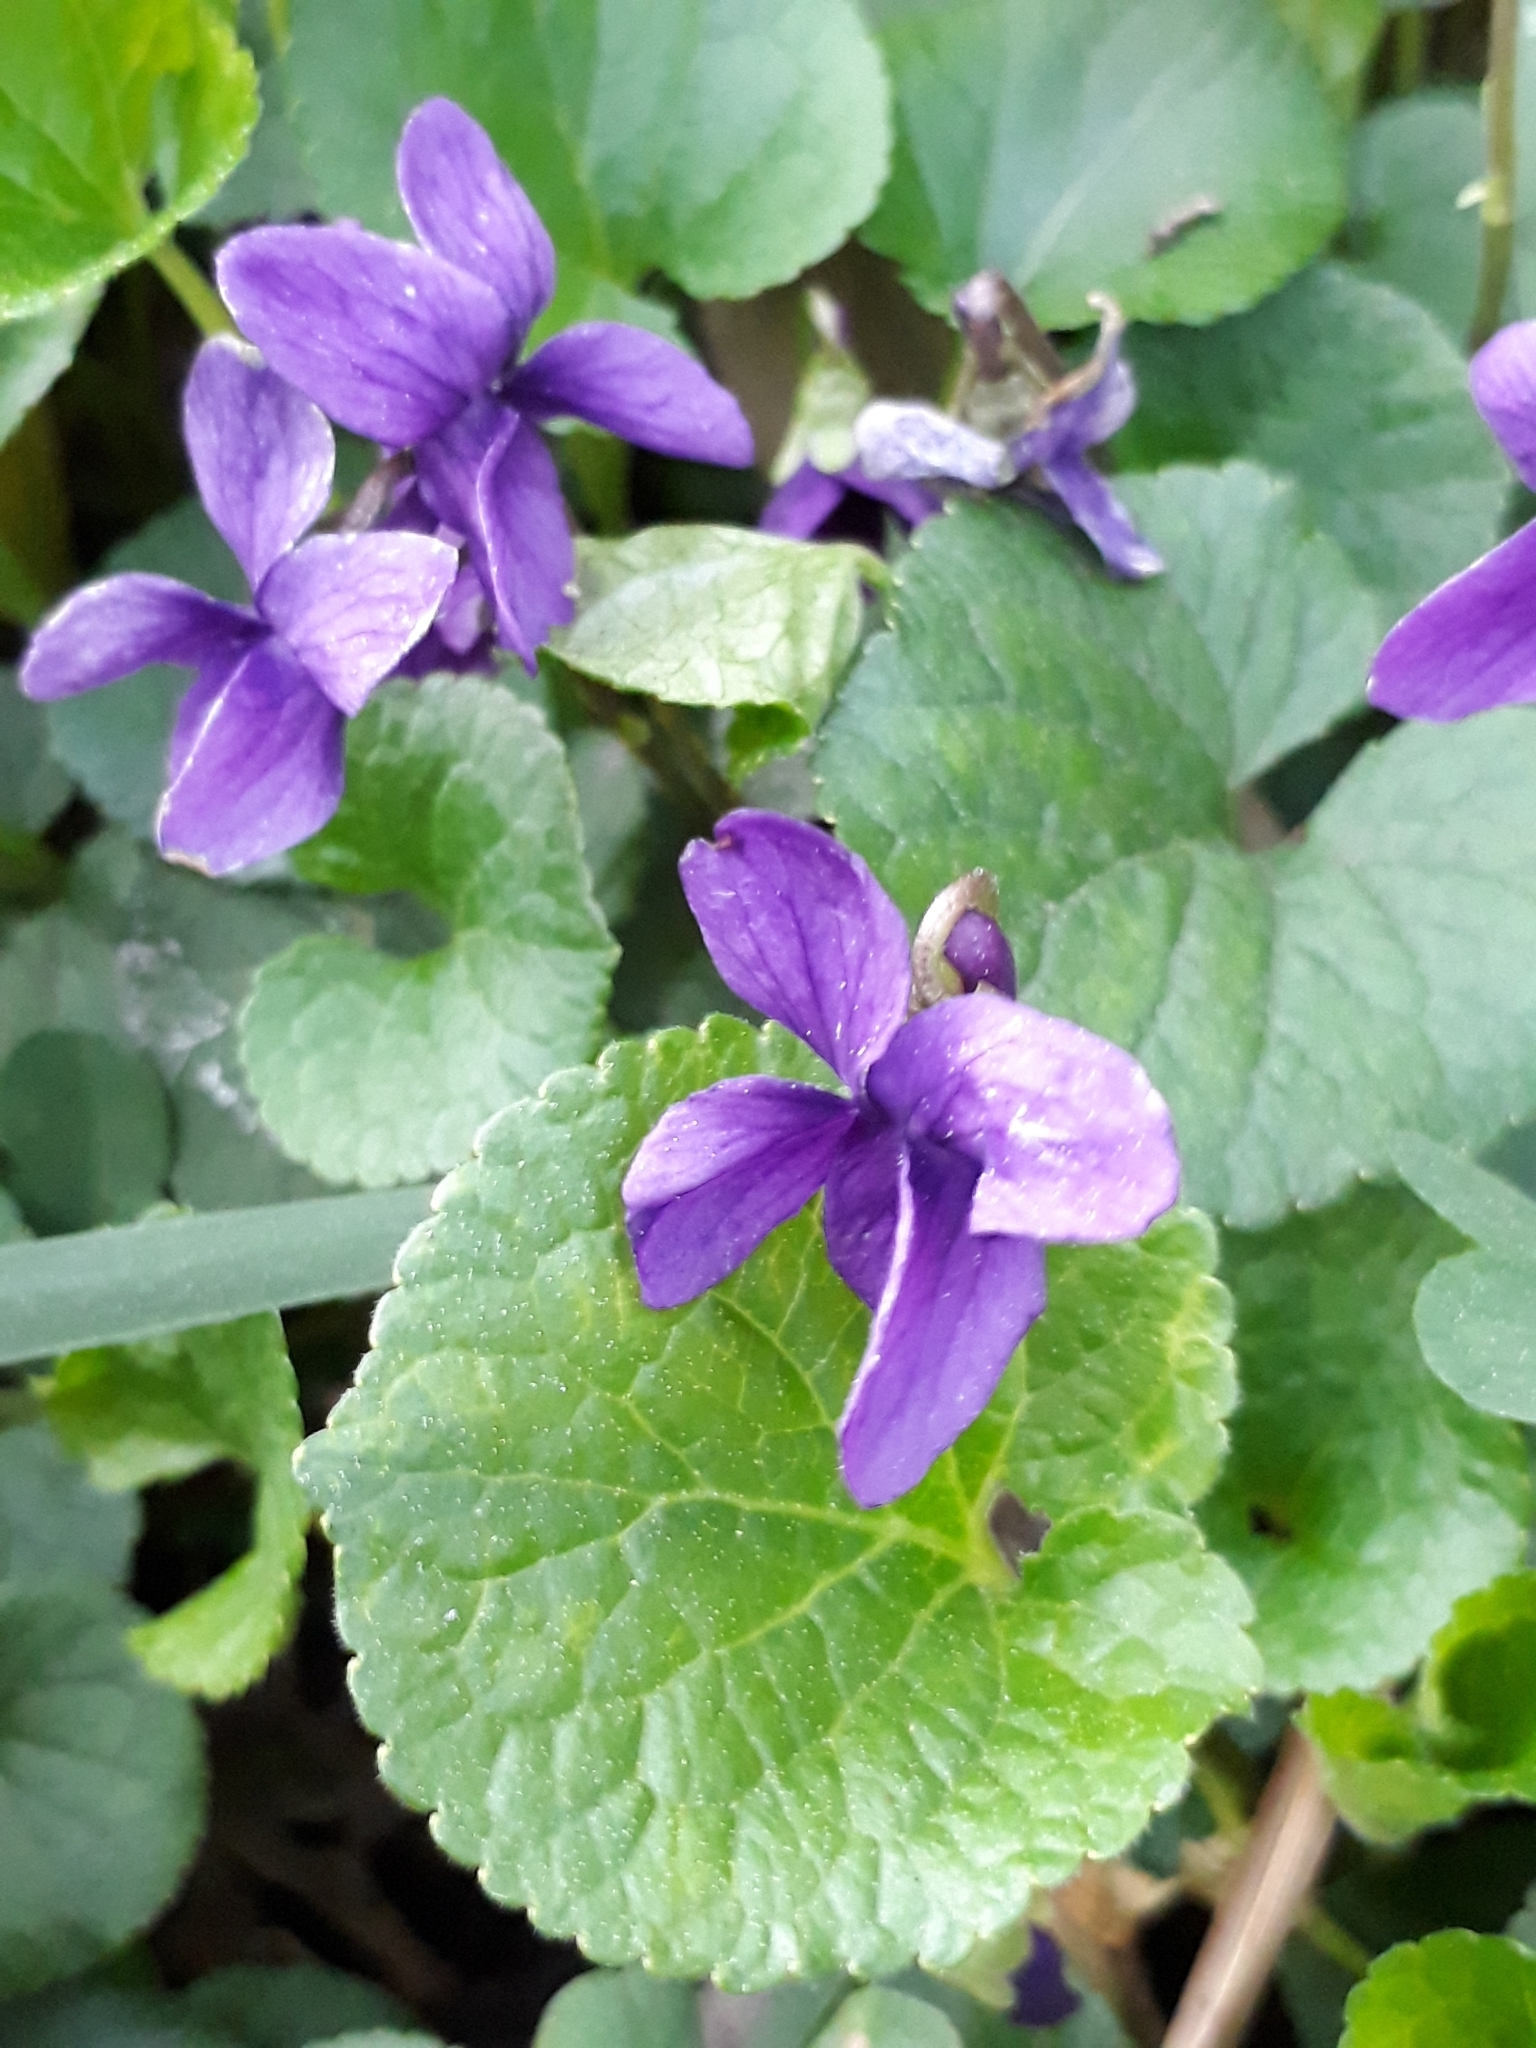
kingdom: Plantae
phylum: Tracheophyta
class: Magnoliopsida
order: Malpighiales
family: Violaceae
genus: Viola
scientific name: Viola odorata
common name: Sweet violet
